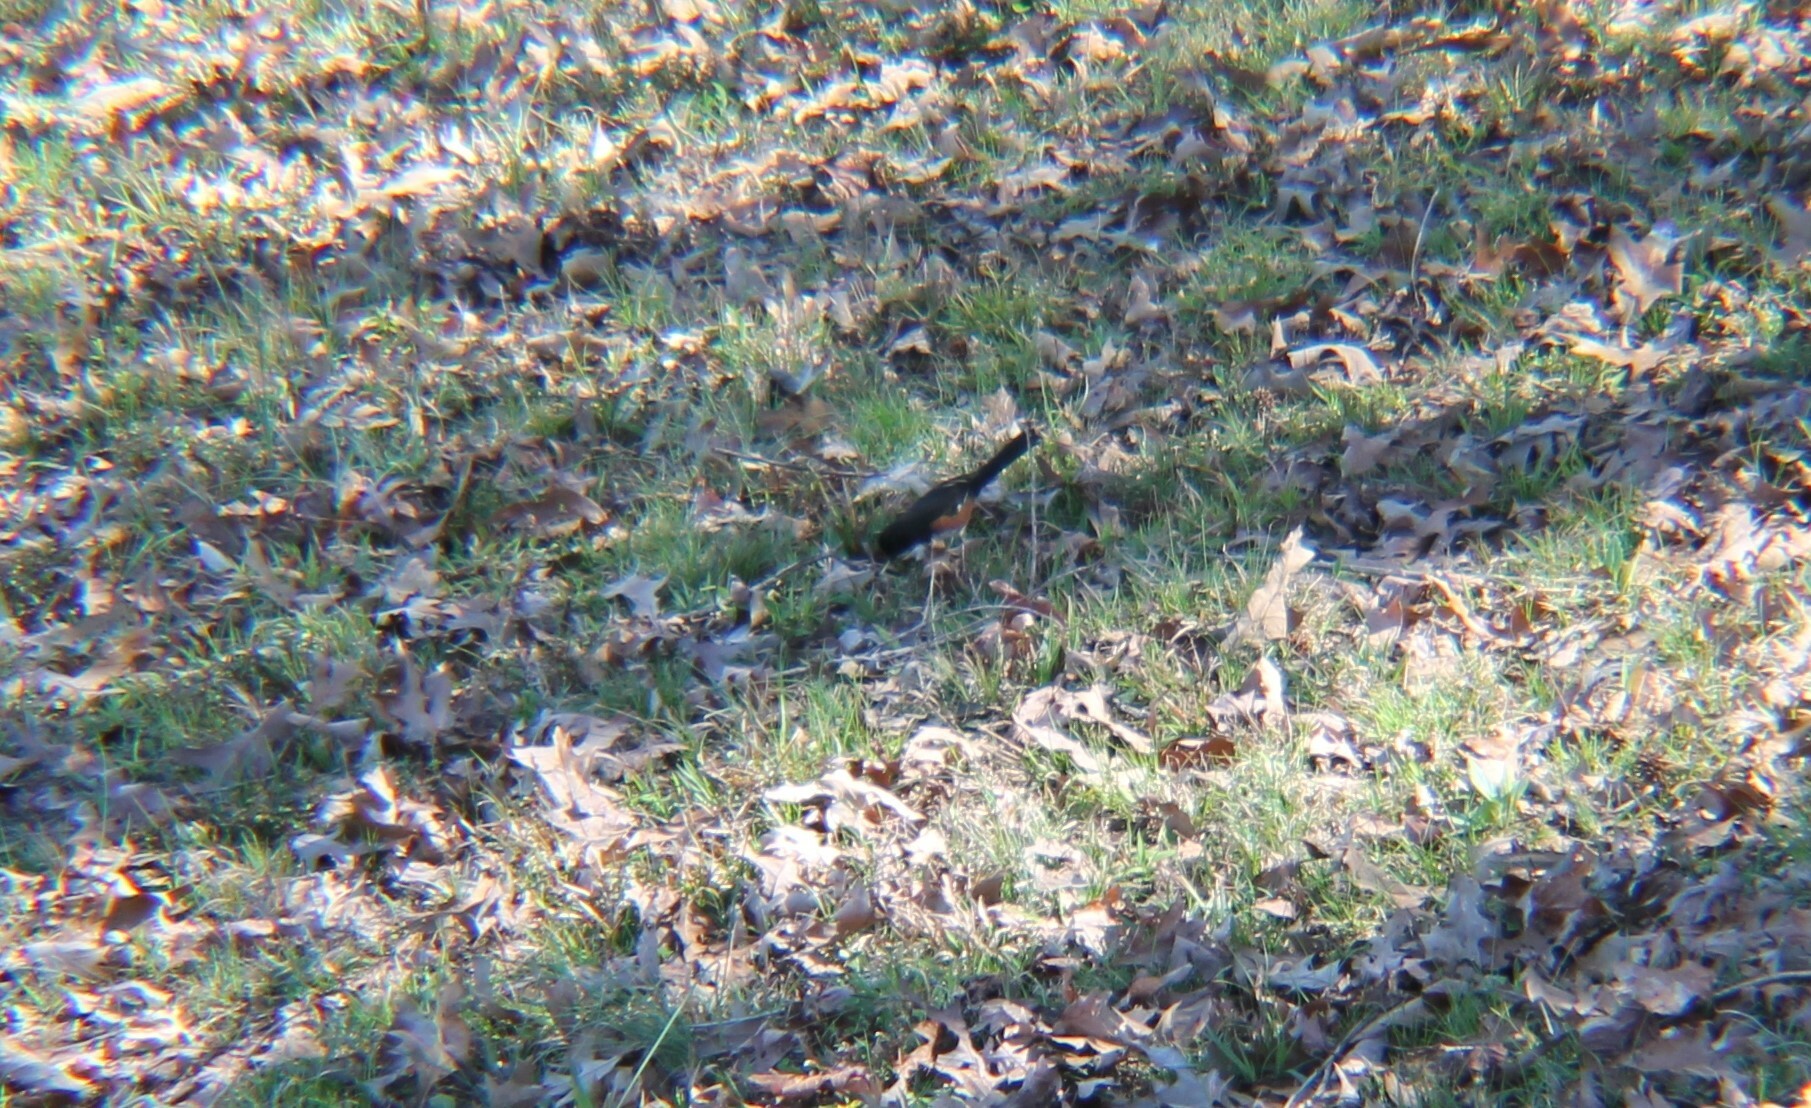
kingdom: Animalia
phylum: Chordata
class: Aves
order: Passeriformes
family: Passerellidae
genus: Pipilo
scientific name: Pipilo erythrophthalmus
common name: Eastern towhee
